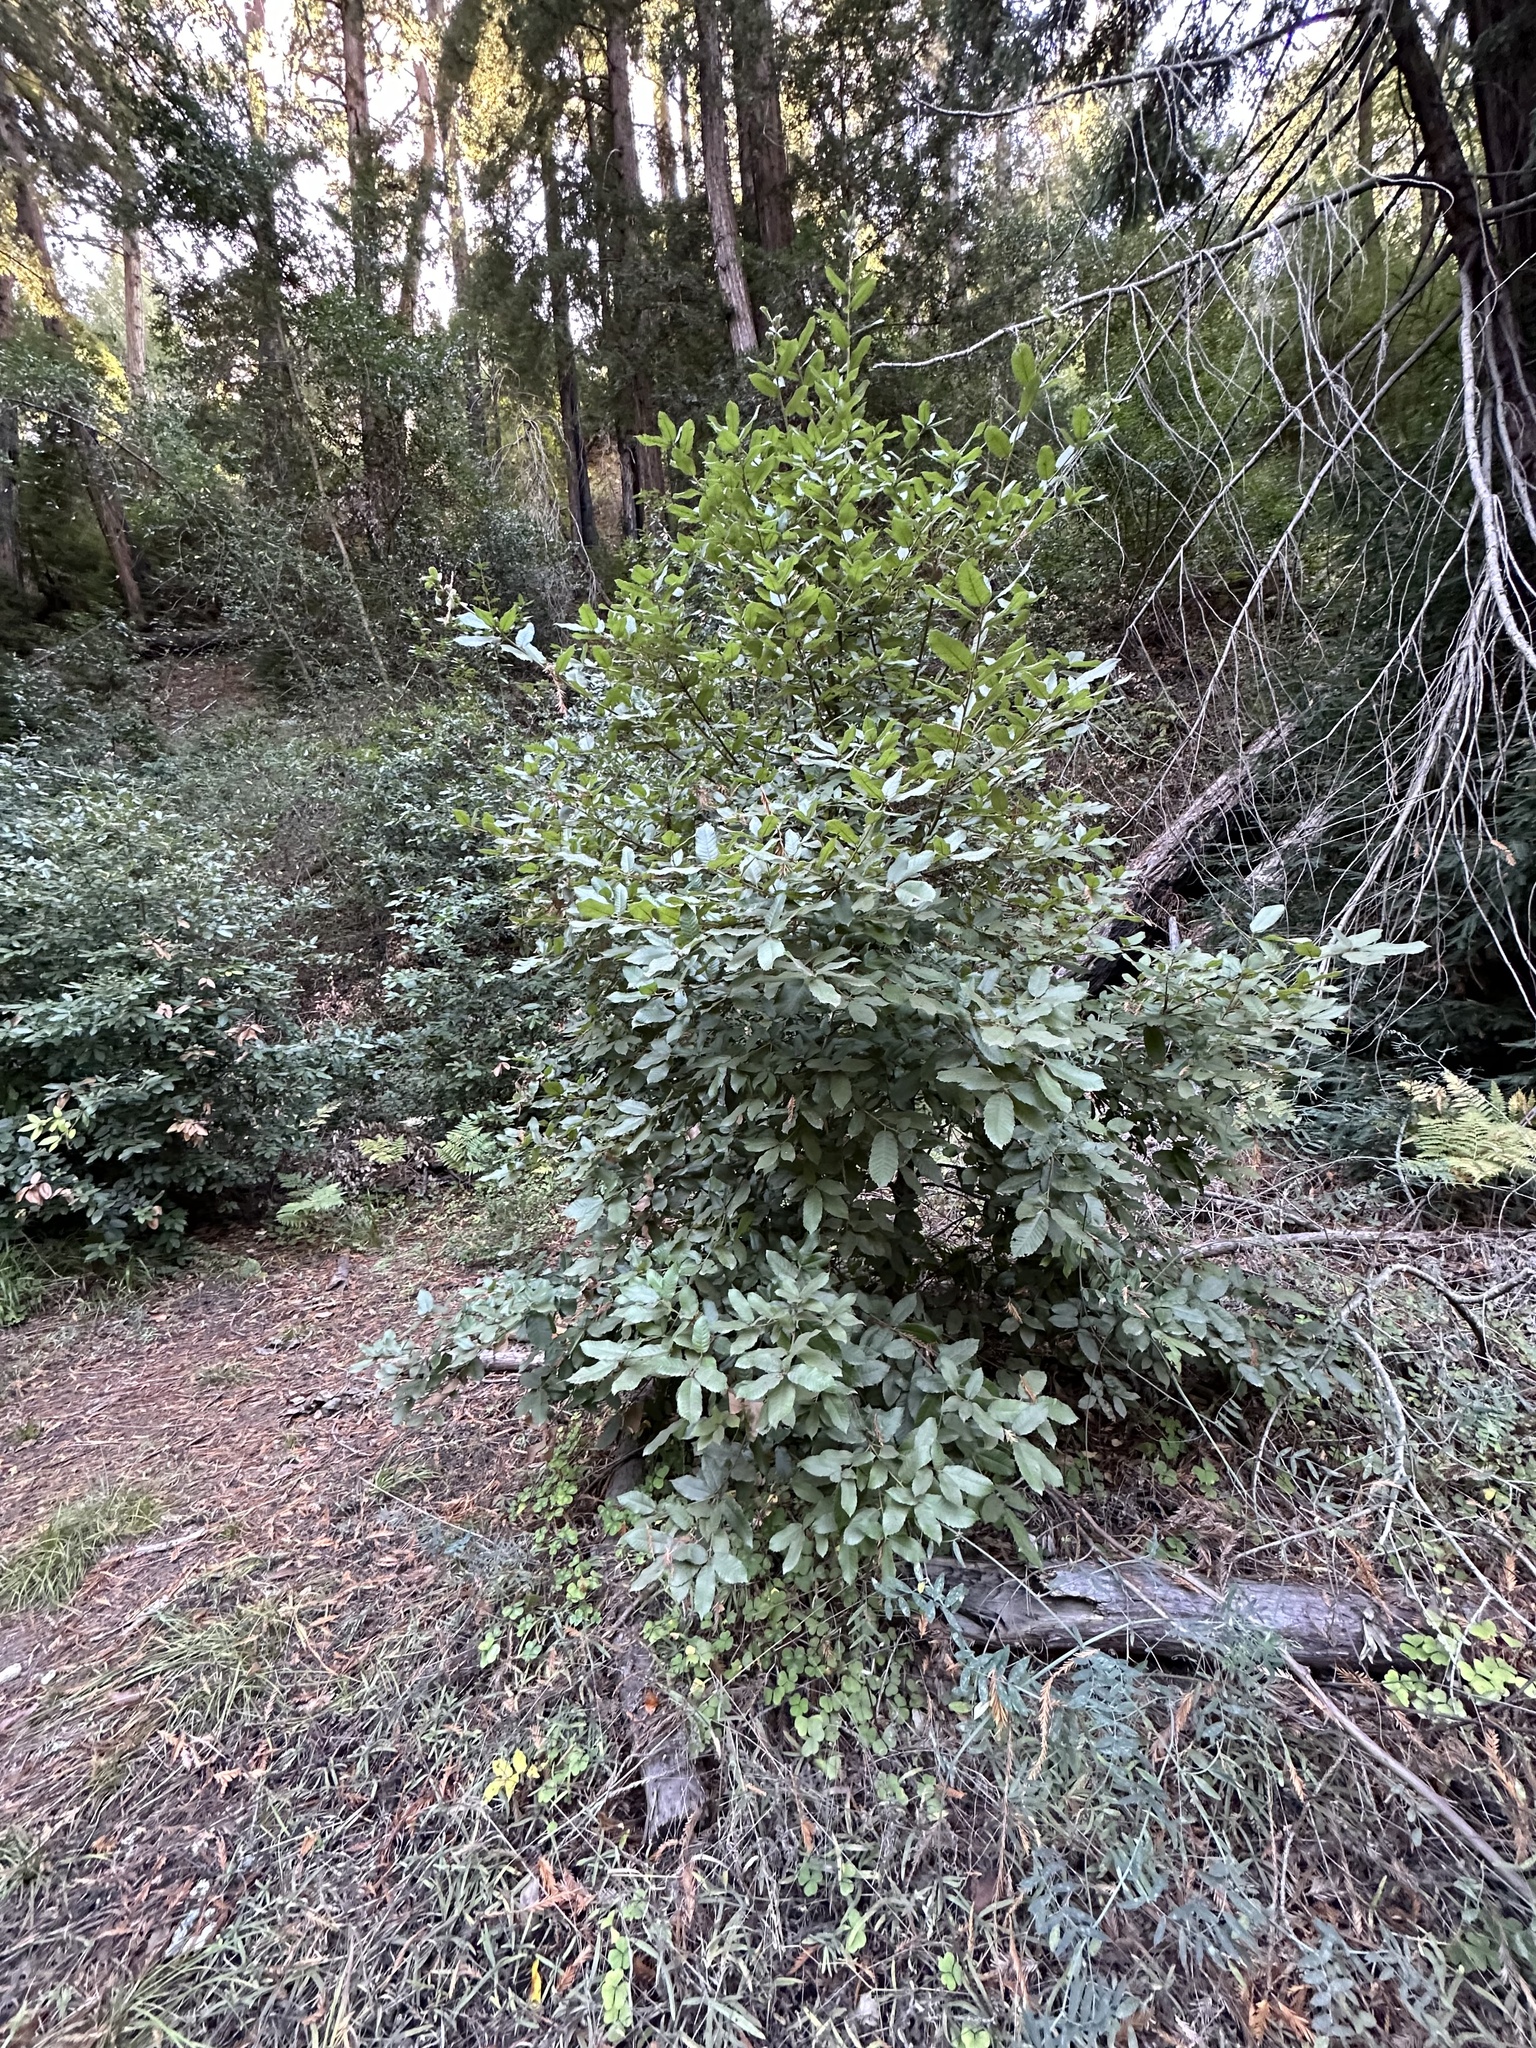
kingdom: Plantae
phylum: Tracheophyta
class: Magnoliopsida
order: Fagales
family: Fagaceae
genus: Notholithocarpus
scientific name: Notholithocarpus densiflorus
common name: Tan bark oak
